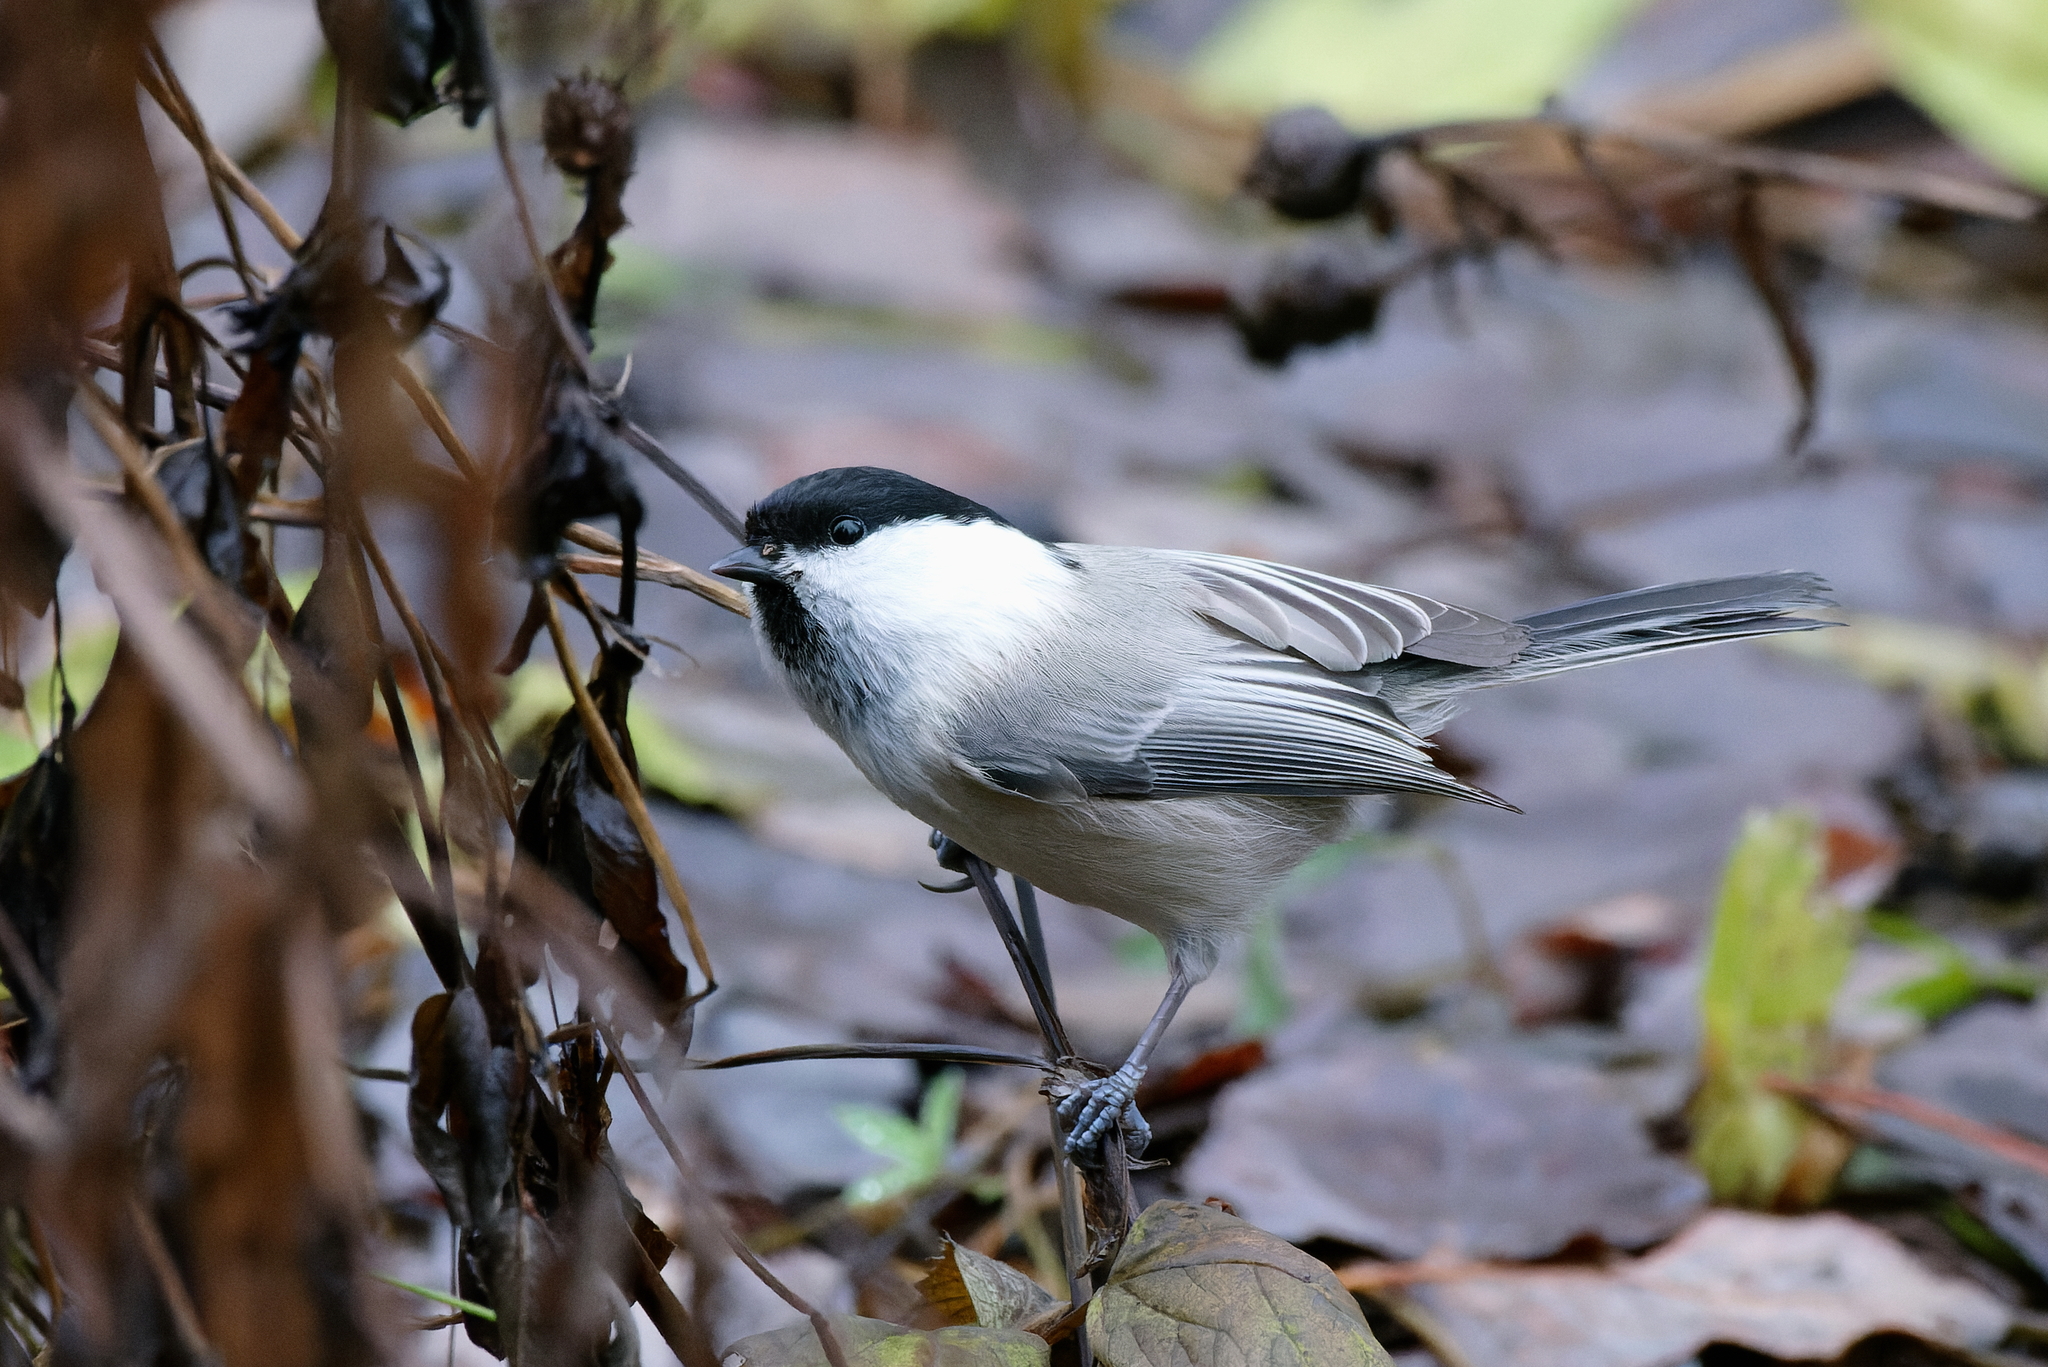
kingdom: Animalia
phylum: Chordata
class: Aves
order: Passeriformes
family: Paridae
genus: Poecile
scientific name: Poecile montanus
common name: Willow tit
